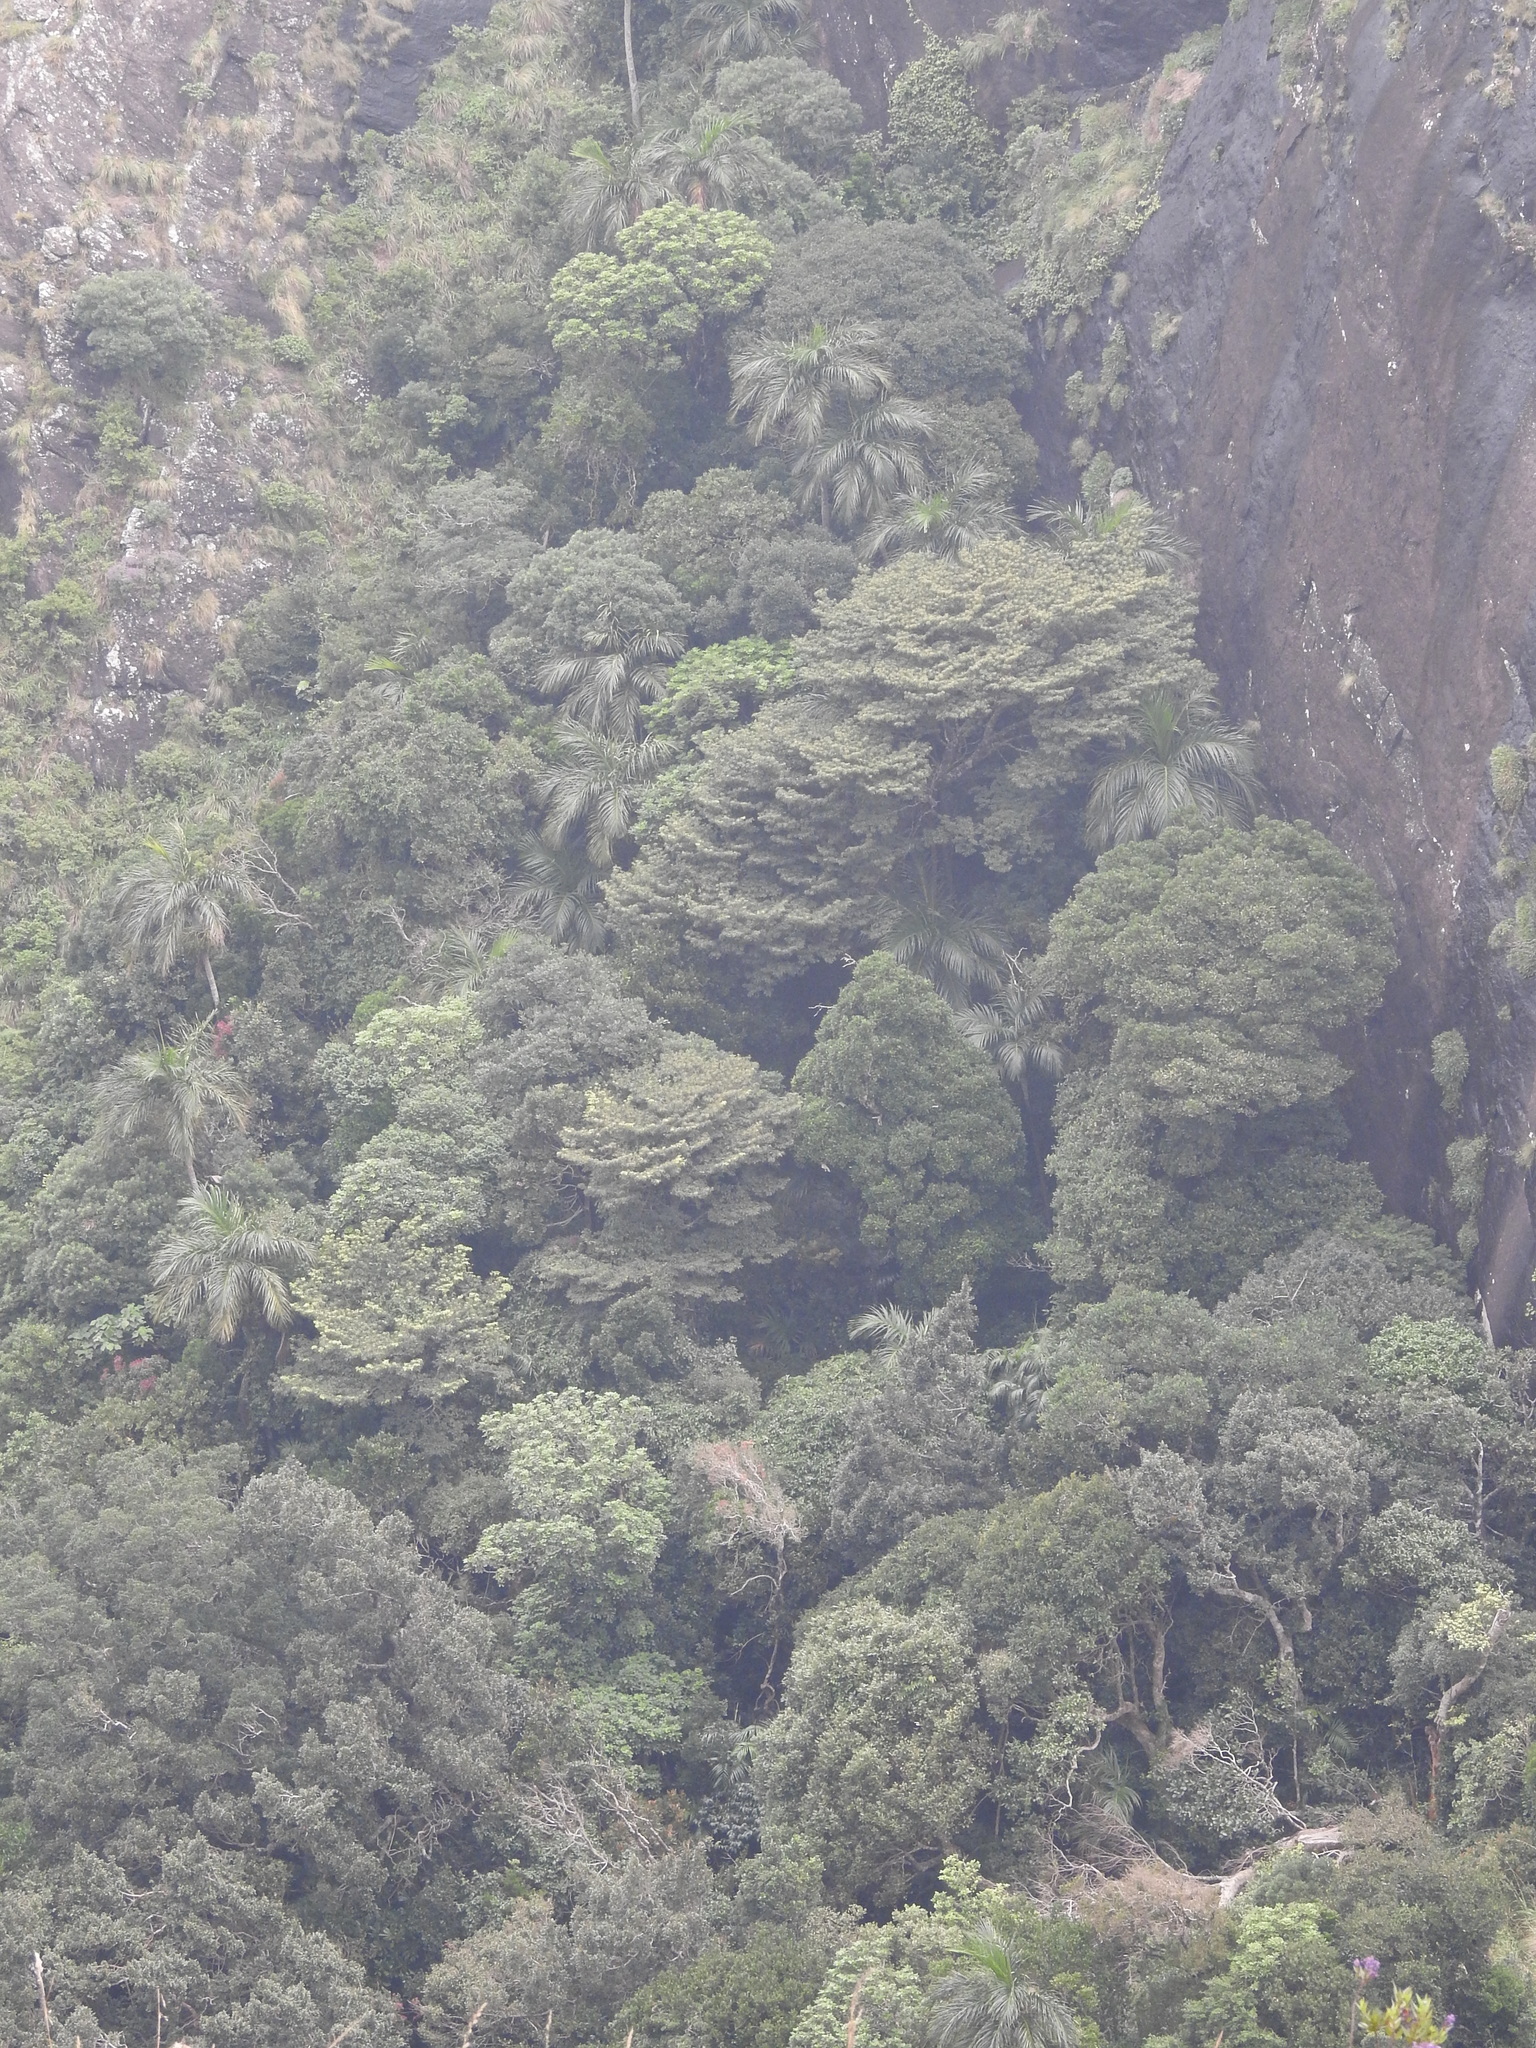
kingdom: Plantae
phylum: Tracheophyta
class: Liliopsida
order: Arecales
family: Arecaceae
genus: Bentinckia
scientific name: Bentinckia condapanna
